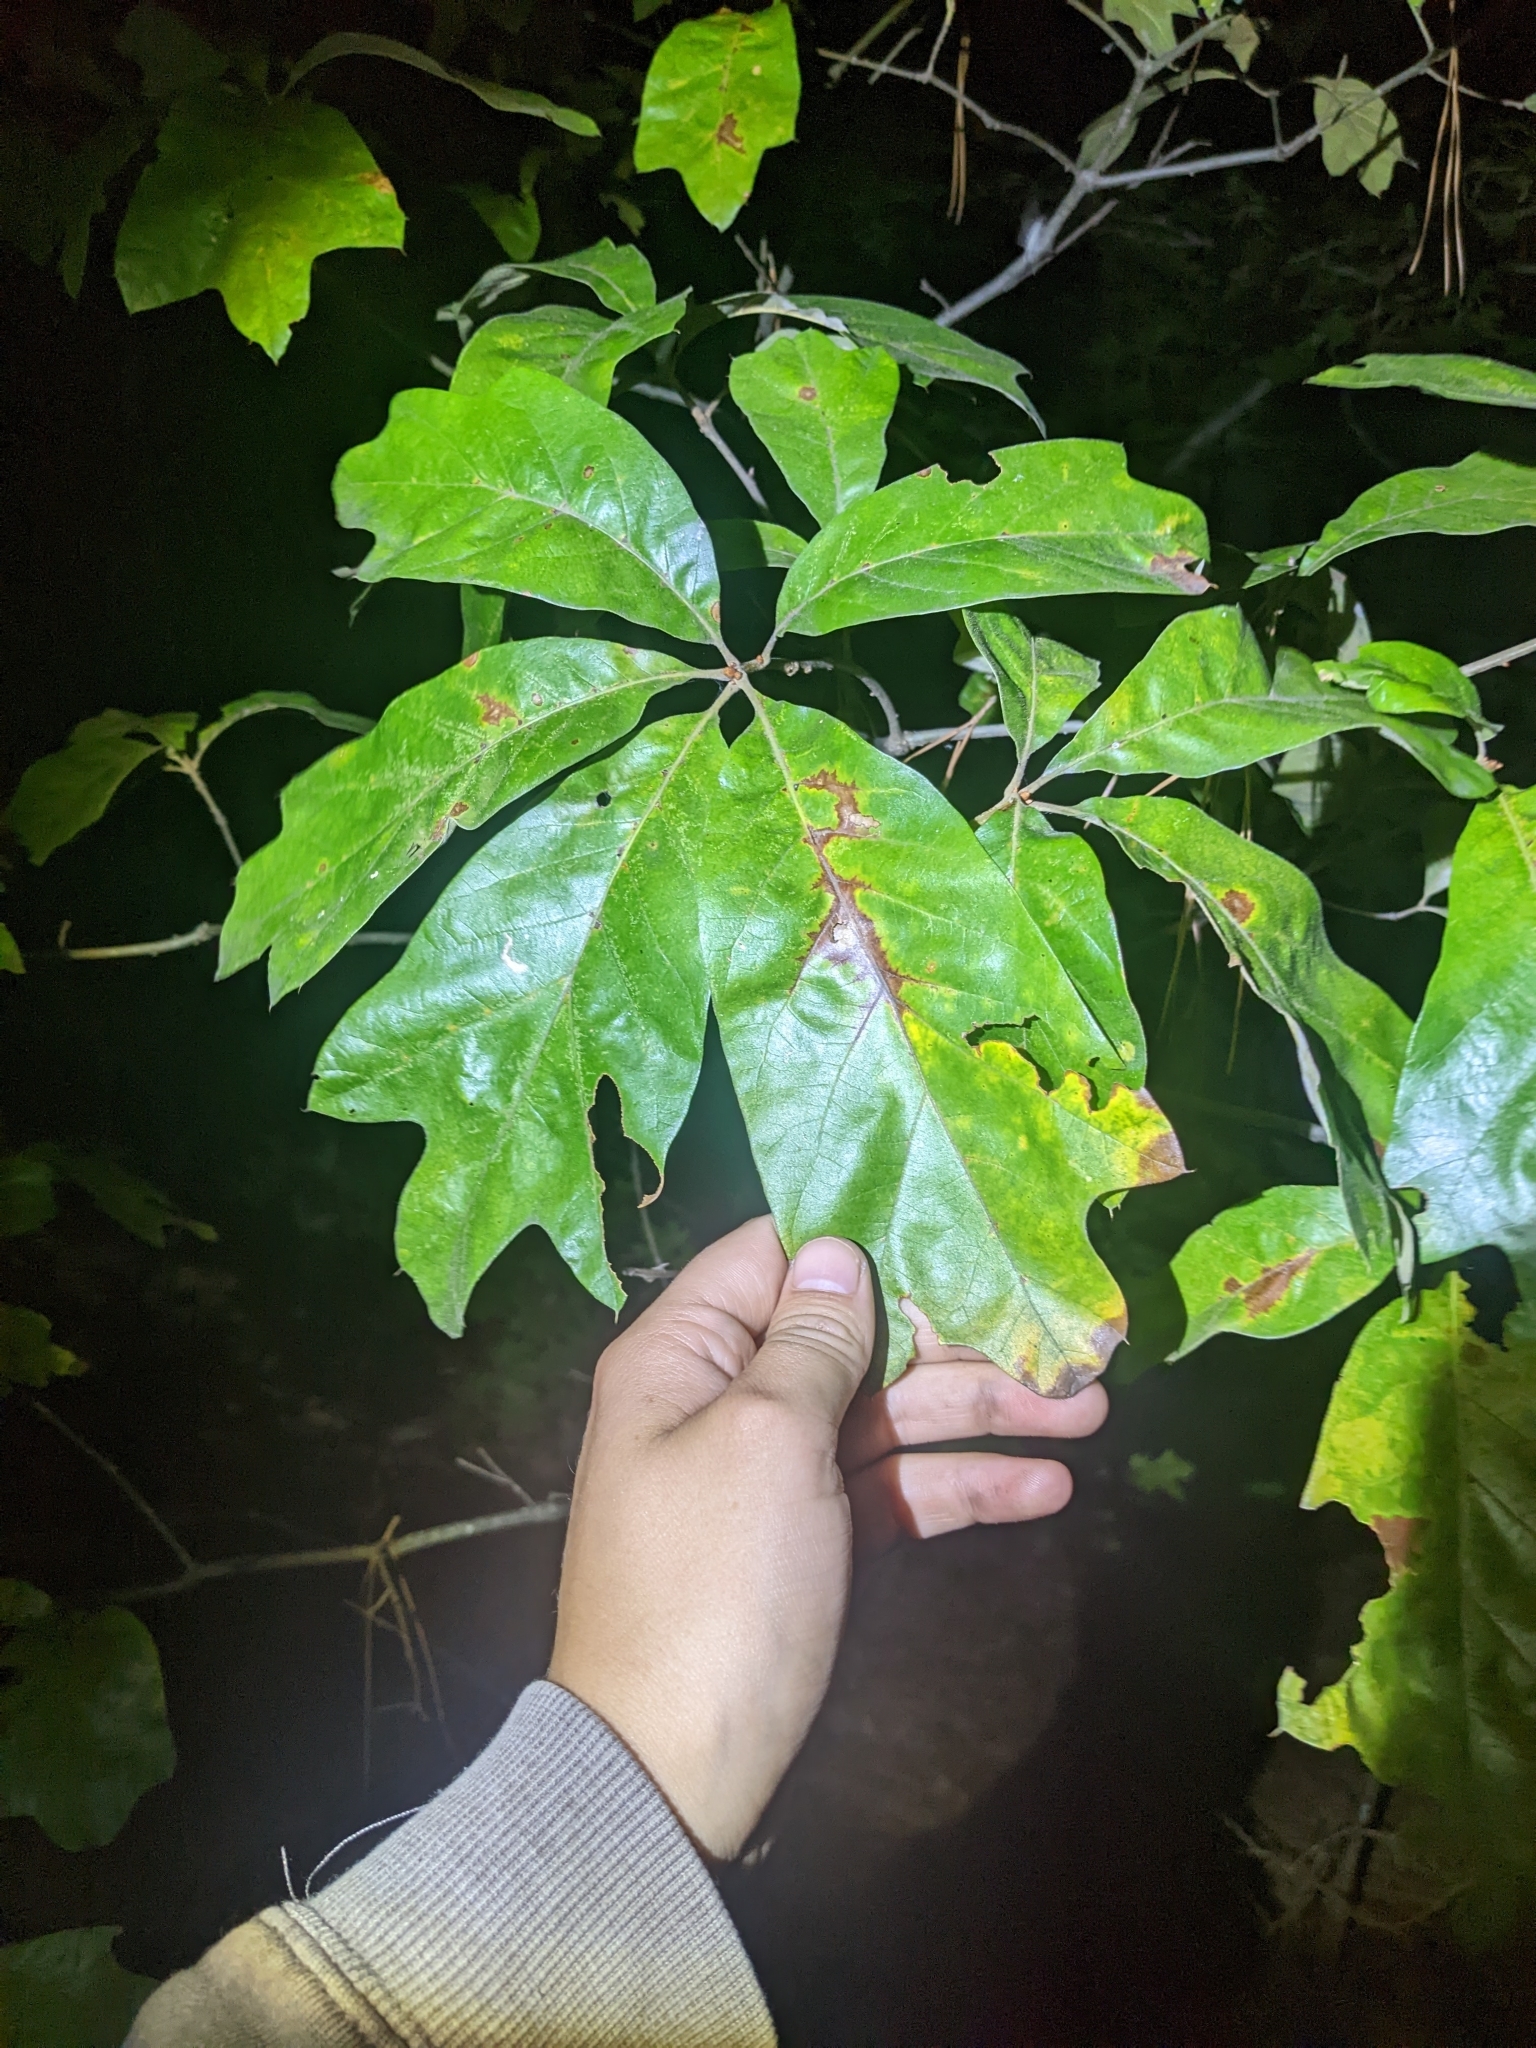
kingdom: Plantae
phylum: Tracheophyta
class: Magnoliopsida
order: Fagales
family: Fagaceae
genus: Quercus
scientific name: Quercus falcata
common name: Southern red oak
